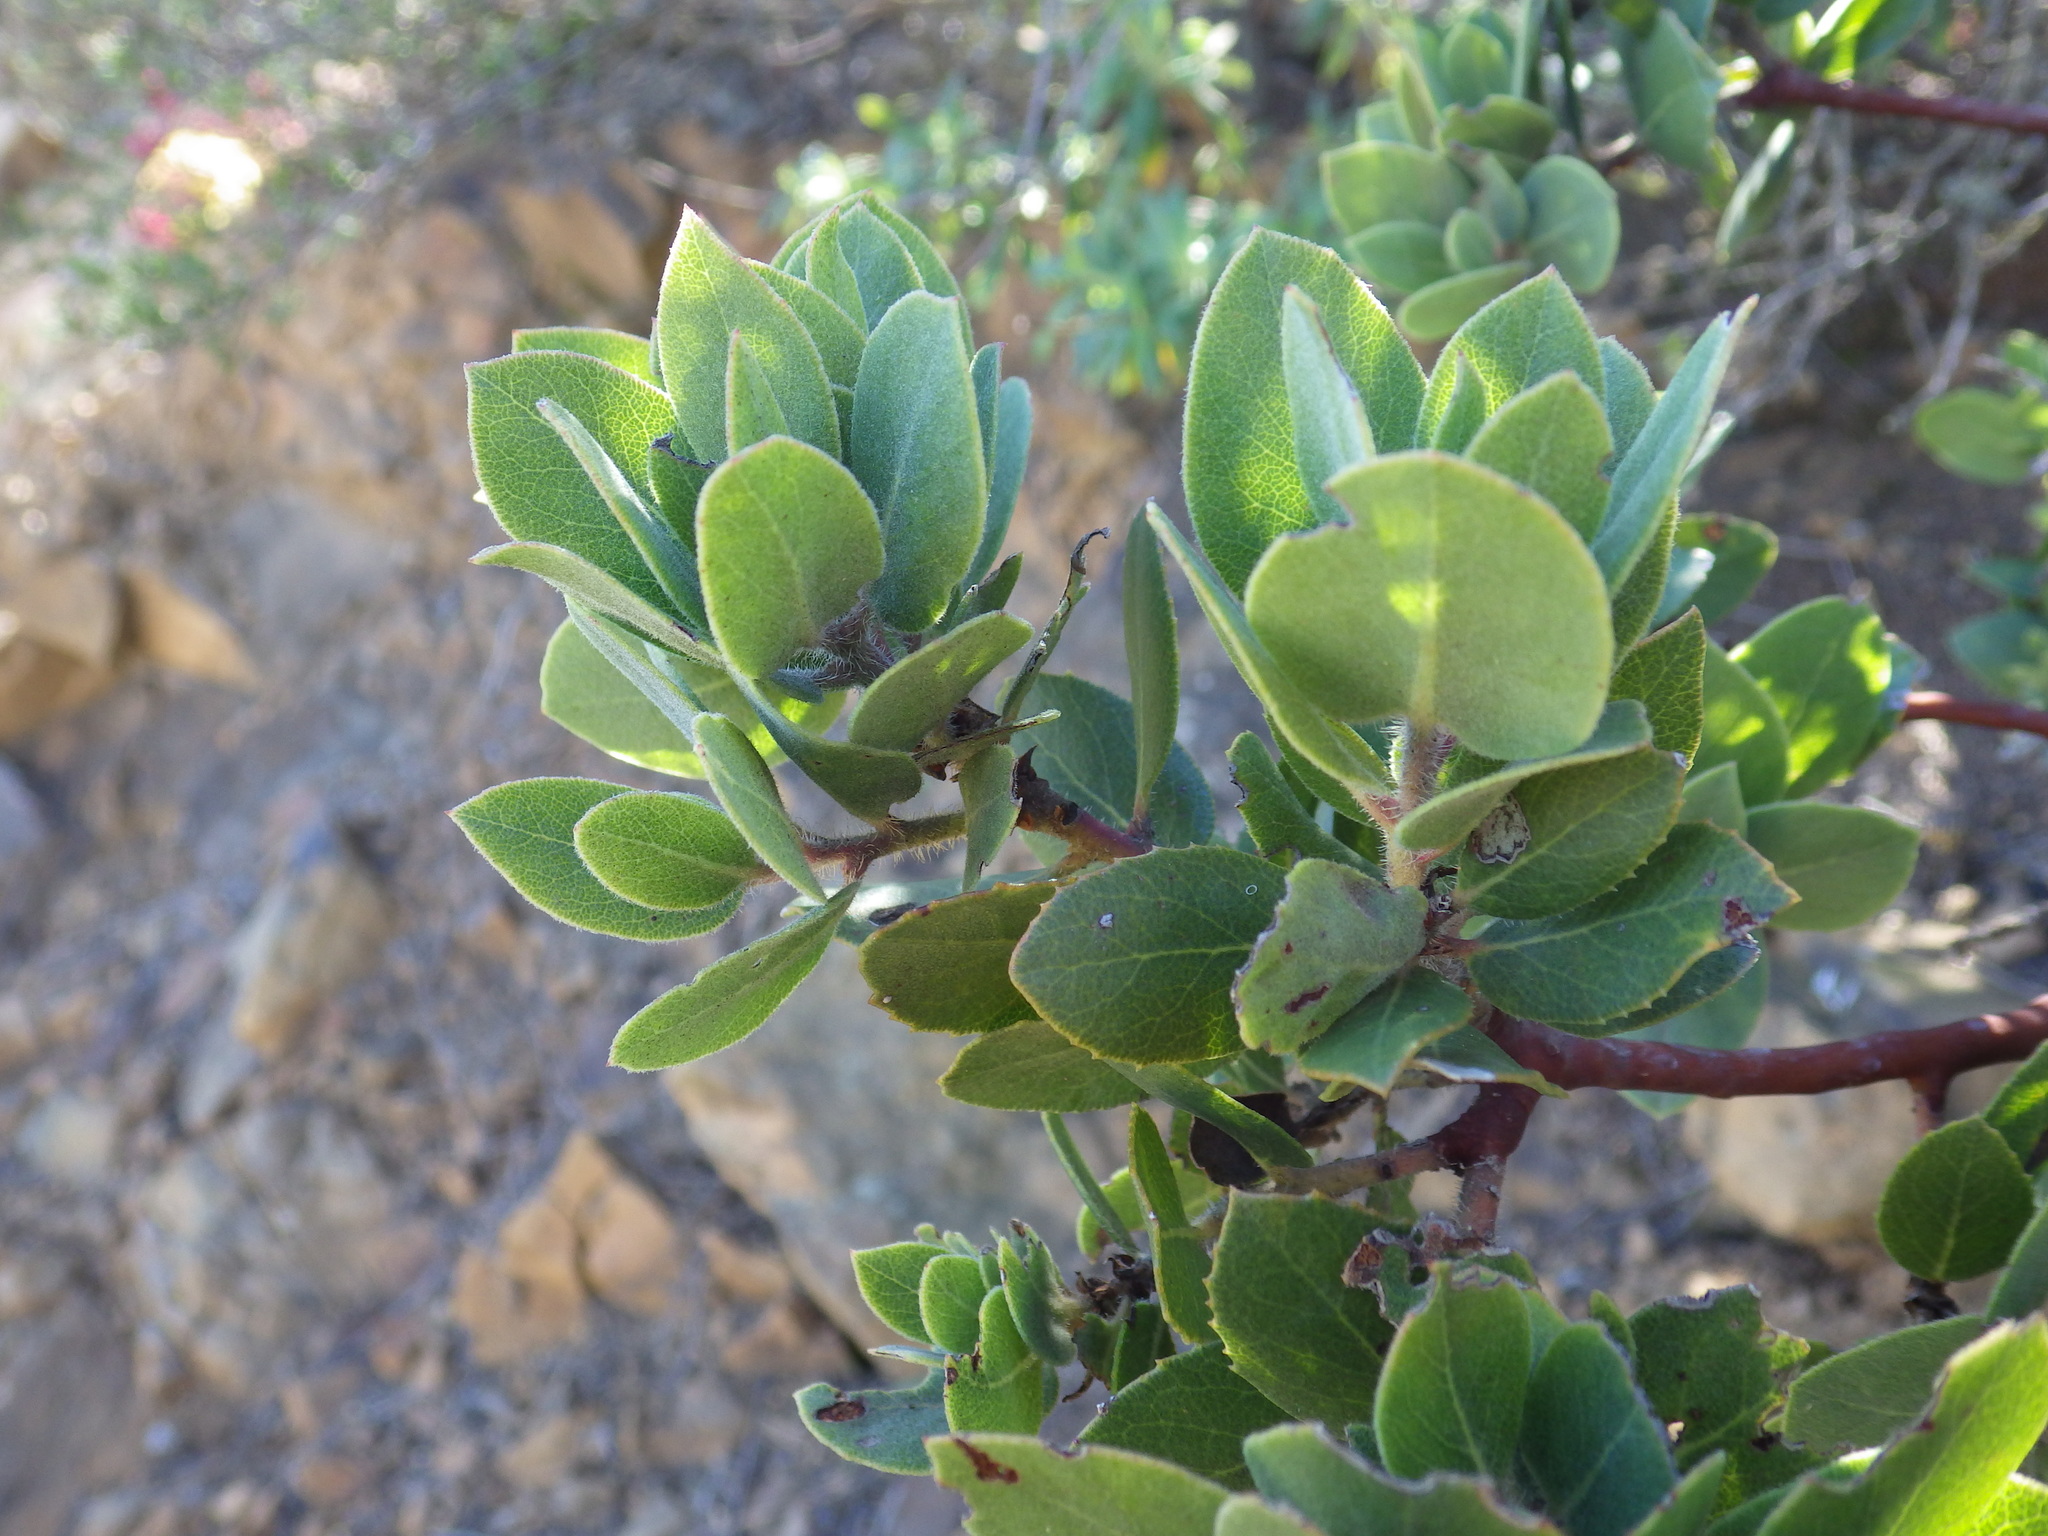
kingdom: Plantae
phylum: Tracheophyta
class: Magnoliopsida
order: Ericales
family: Ericaceae
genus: Arctostaphylos
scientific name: Arctostaphylos glandulosa
